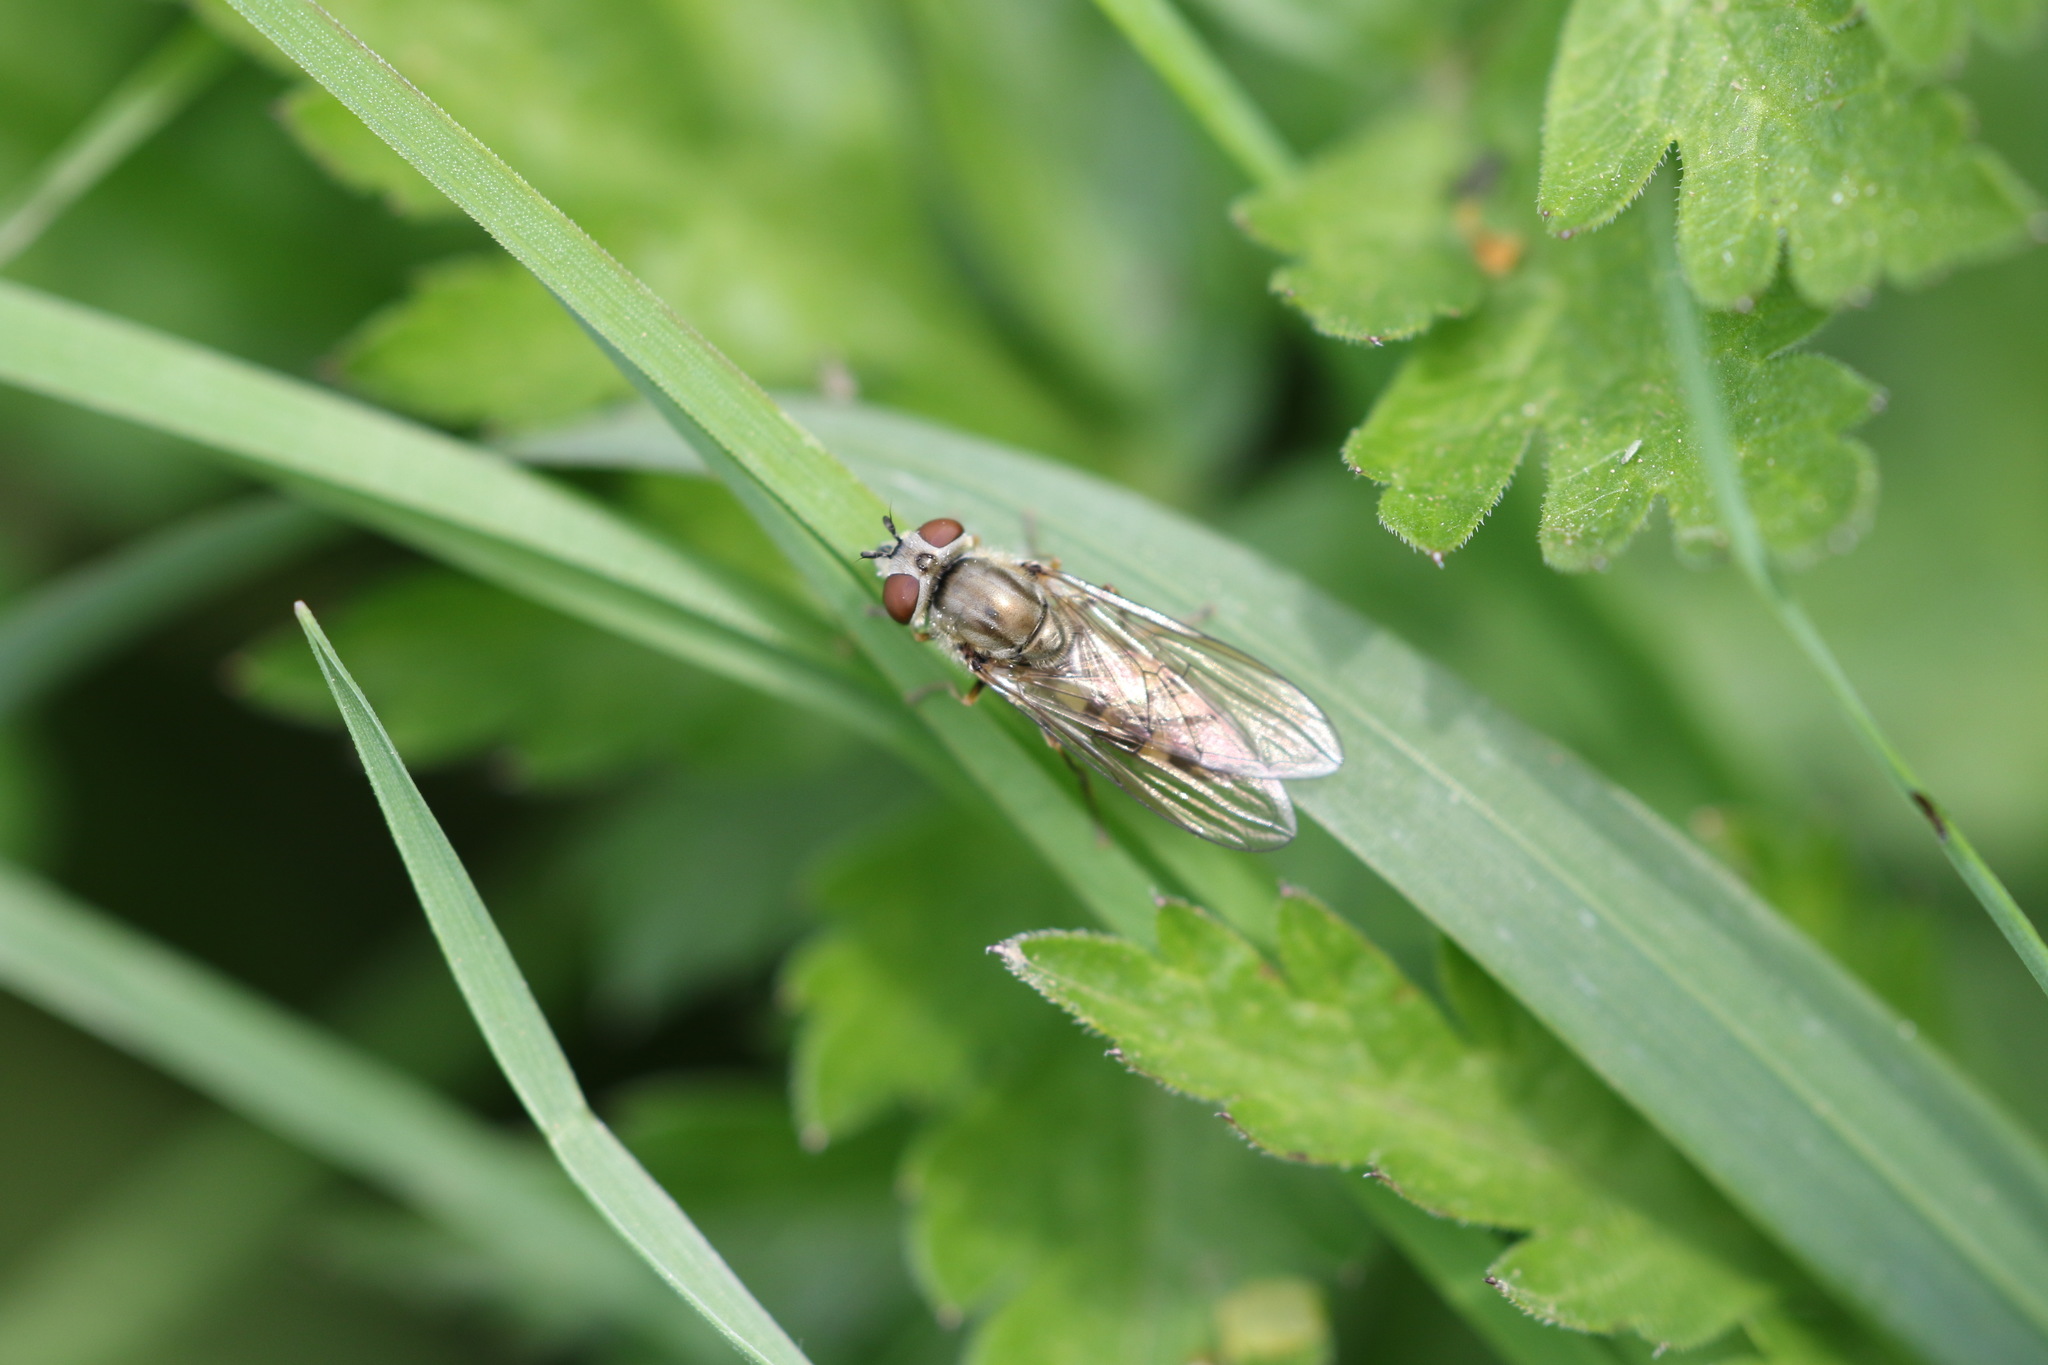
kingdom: Animalia
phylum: Arthropoda
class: Insecta
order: Diptera
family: Syrphidae
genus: Platycheirus
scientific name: Platycheirus manicatus
